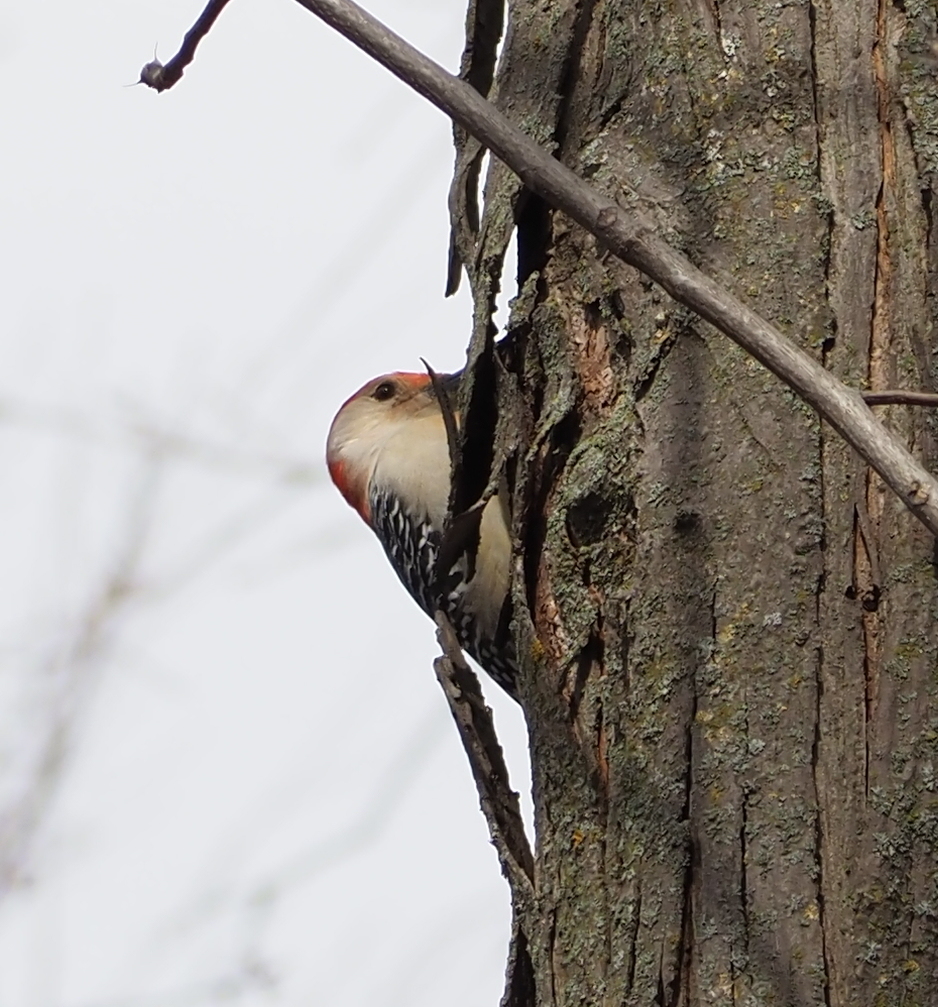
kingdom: Animalia
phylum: Chordata
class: Aves
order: Piciformes
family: Picidae
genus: Melanerpes
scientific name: Melanerpes carolinus
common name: Red-bellied woodpecker
